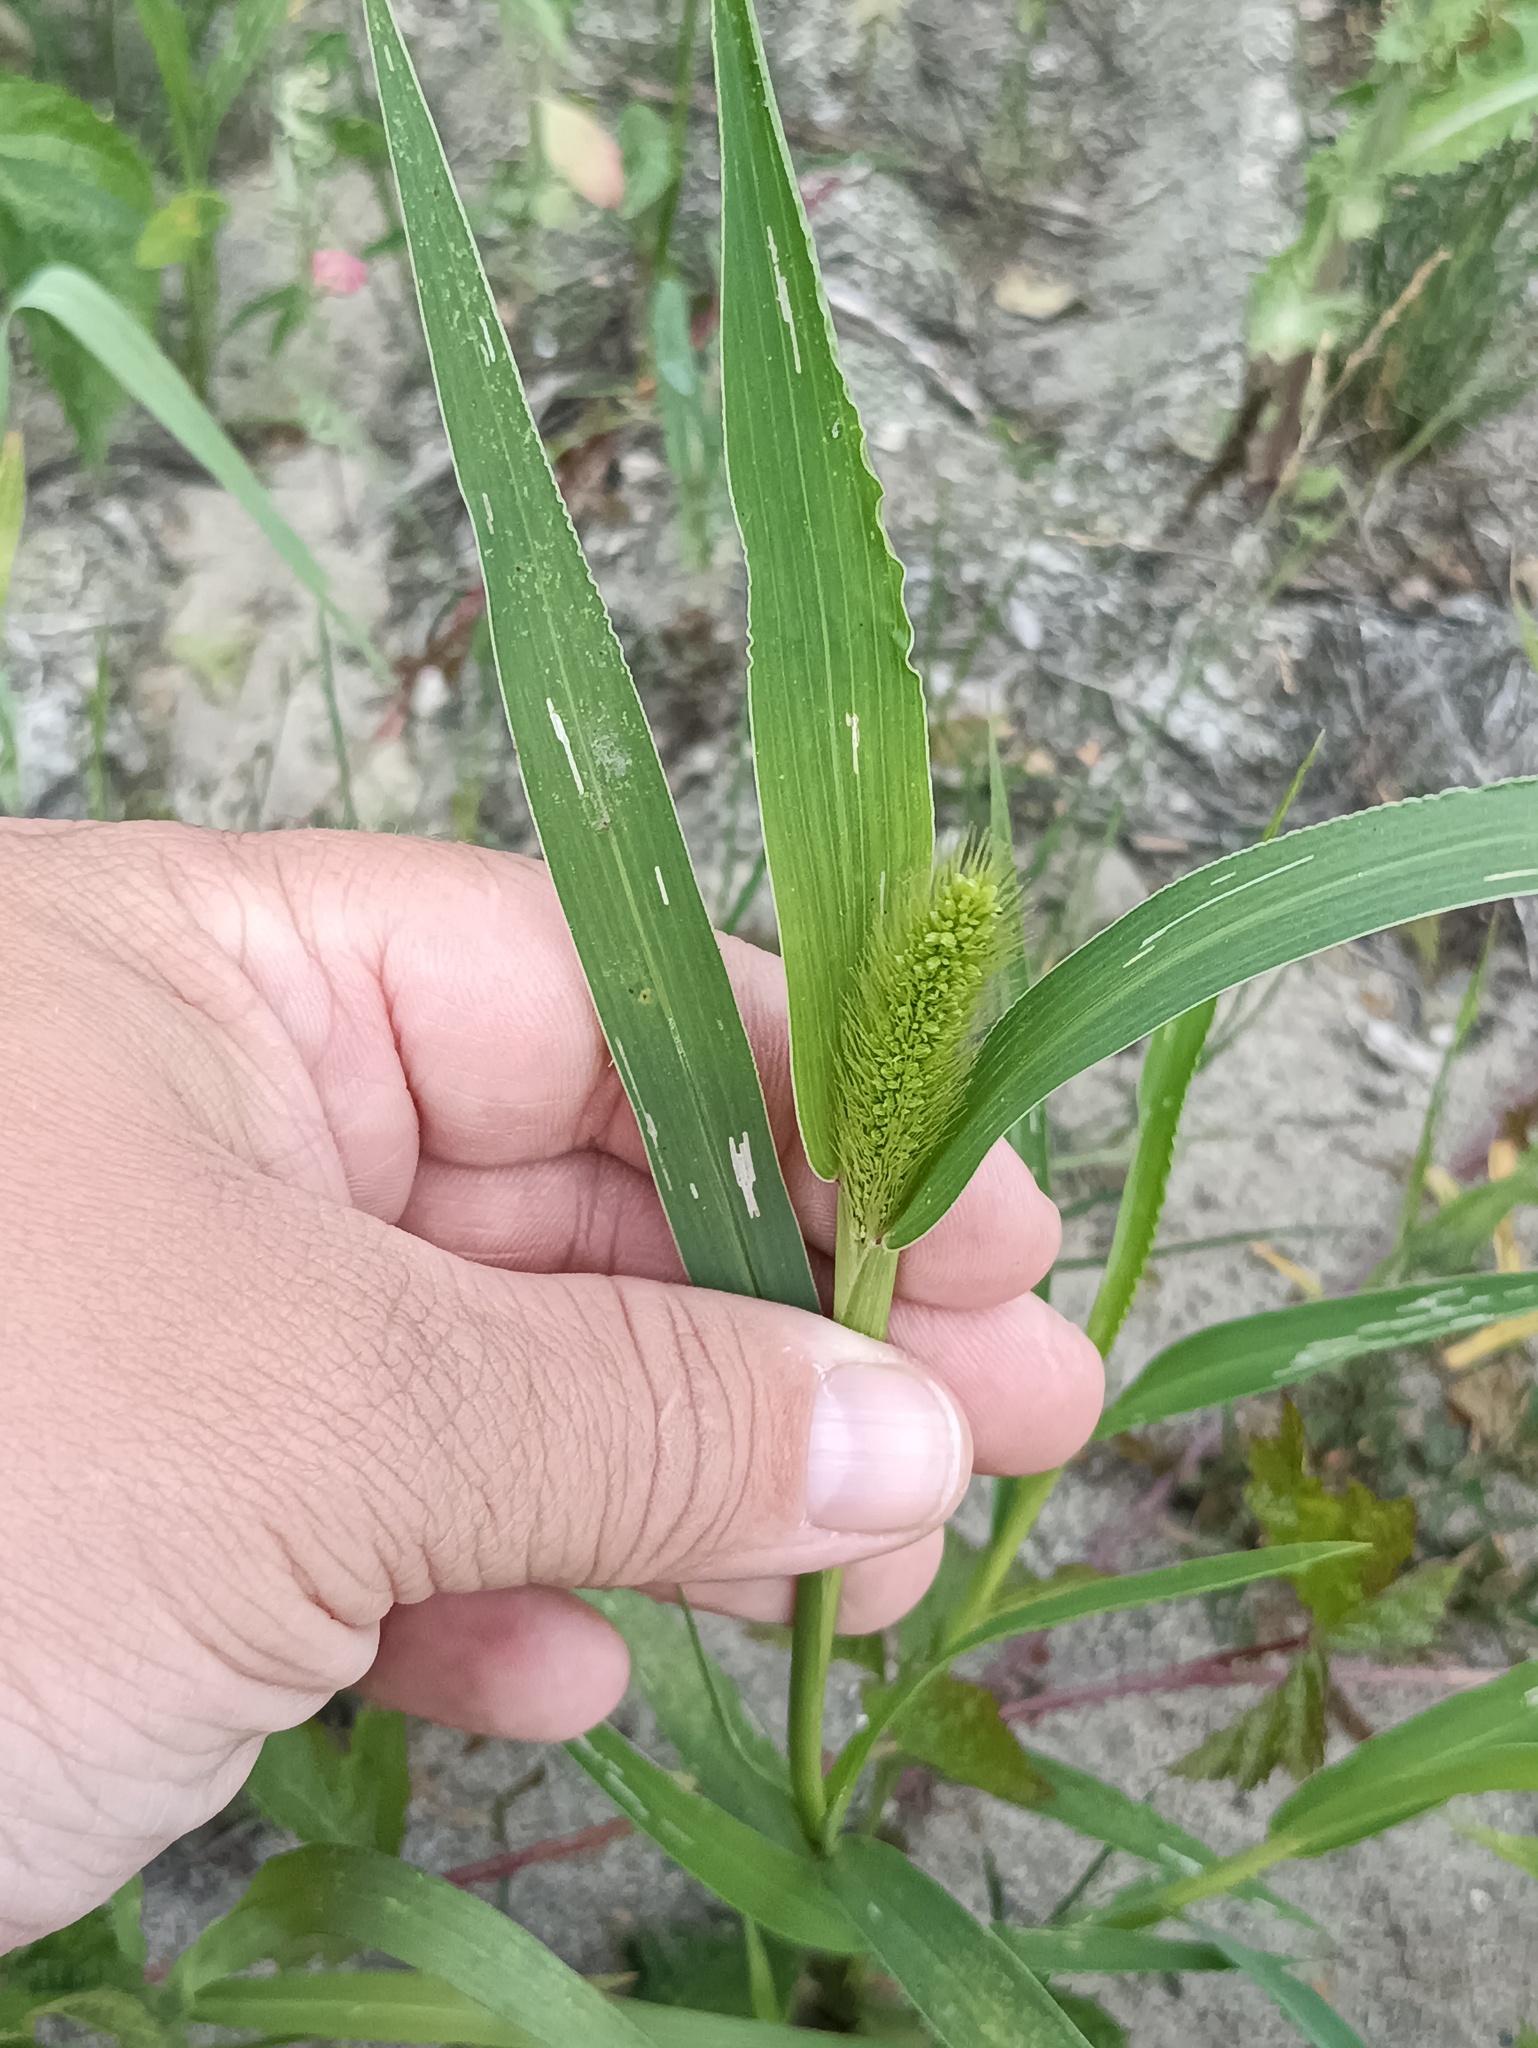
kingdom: Plantae
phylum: Tracheophyta
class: Liliopsida
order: Poales
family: Poaceae
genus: Setaria
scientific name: Setaria viridis
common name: Green bristlegrass
